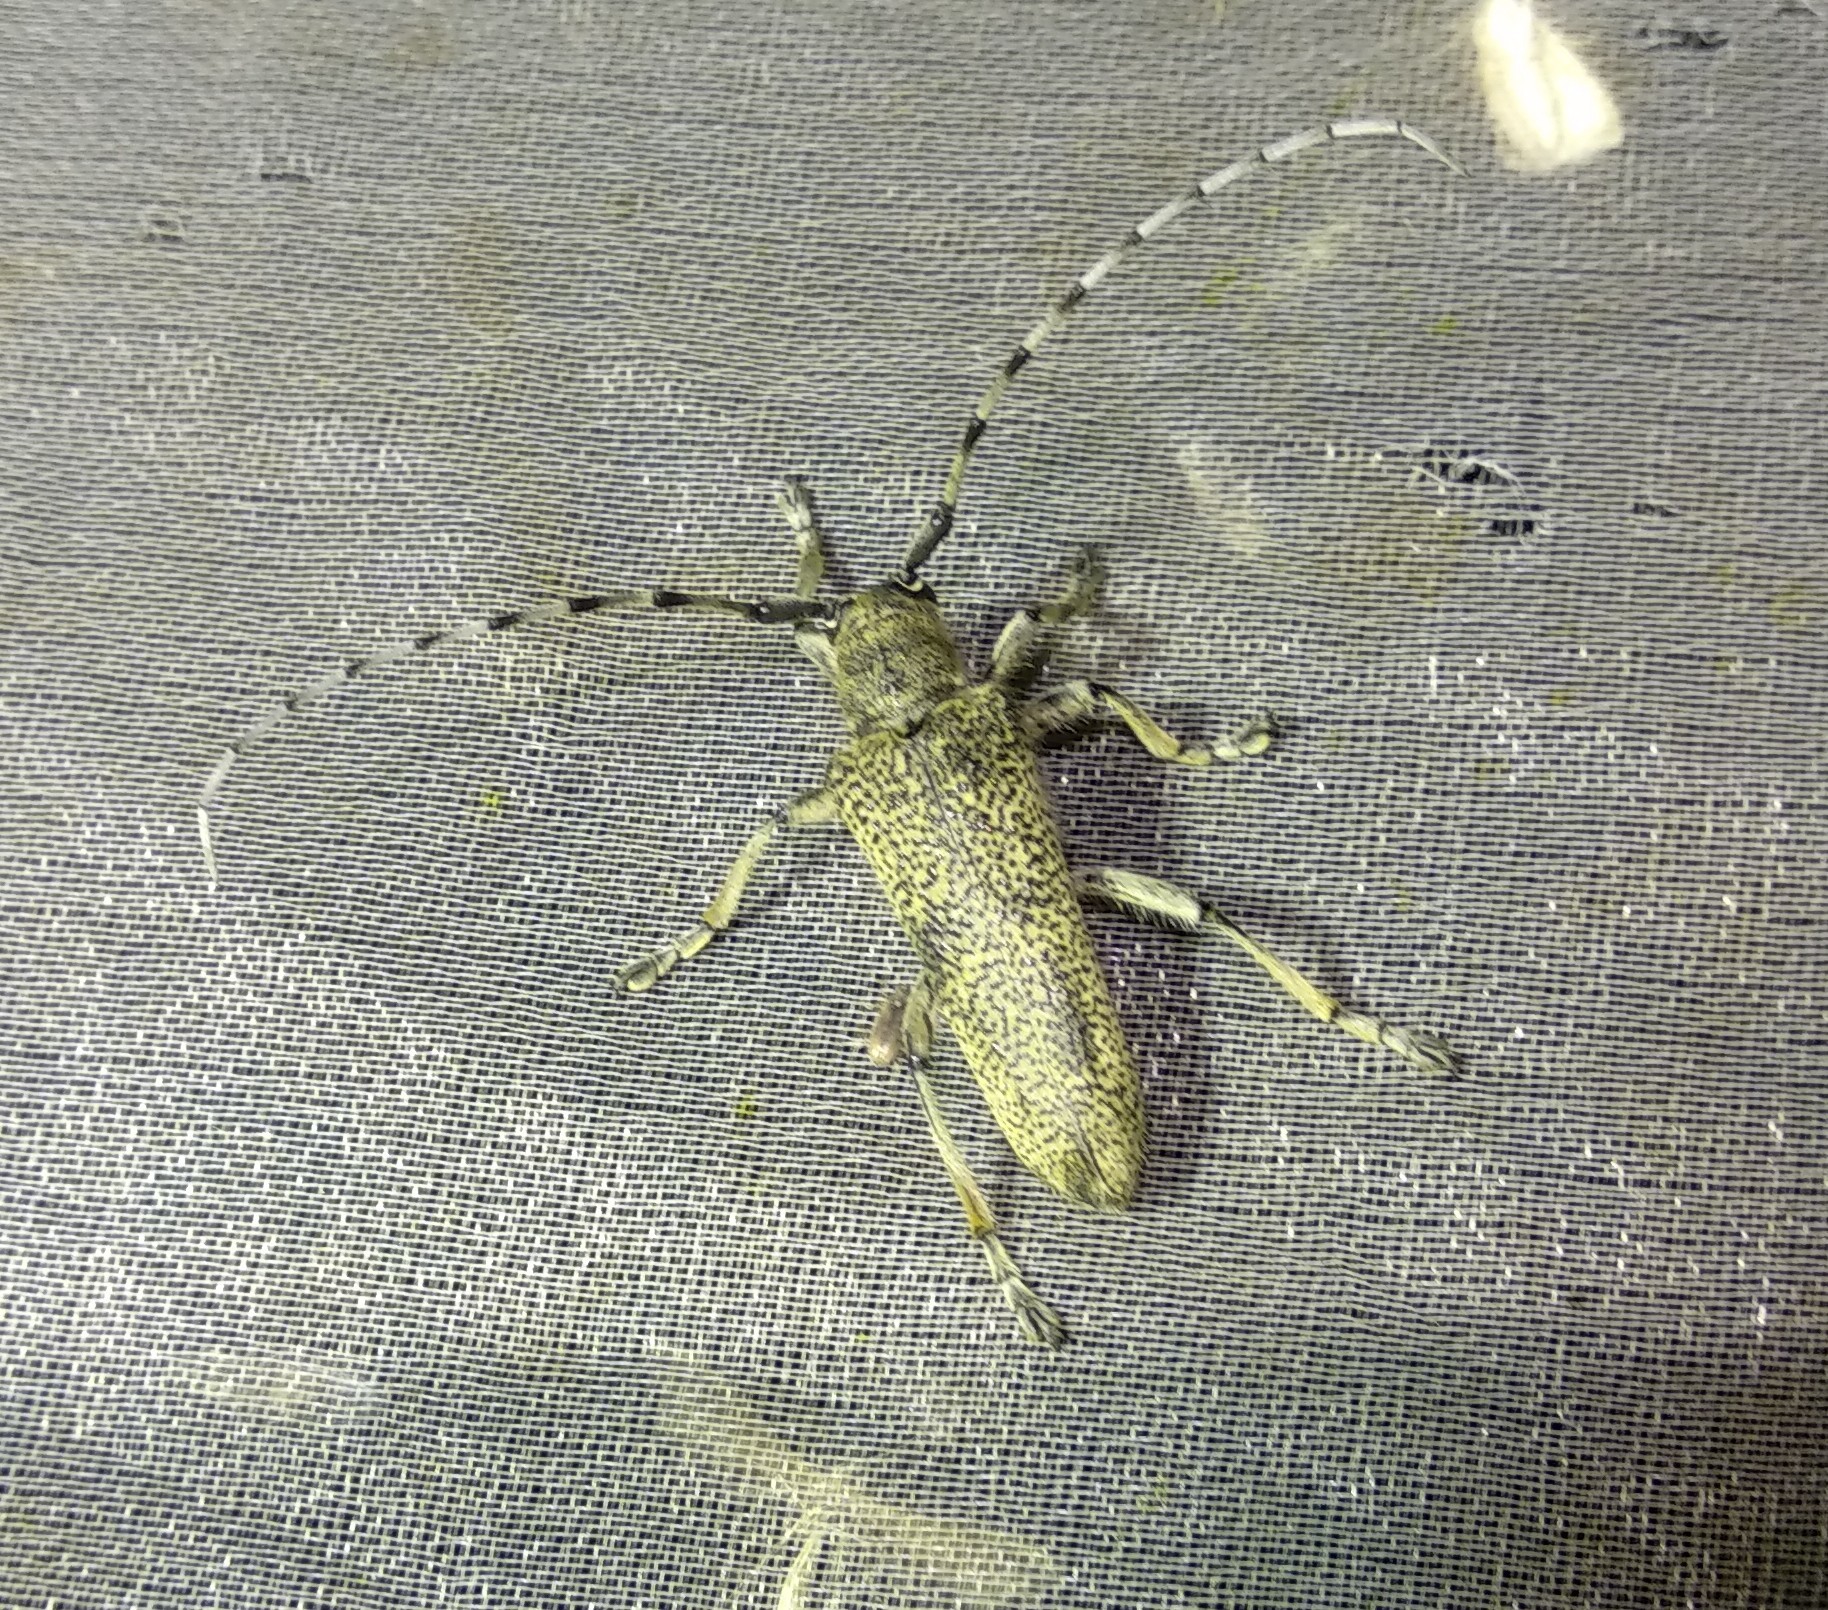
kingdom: Animalia
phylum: Arthropoda
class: Insecta
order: Coleoptera
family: Cerambycidae
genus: Saperda
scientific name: Saperda carcharias
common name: Poplar borer
